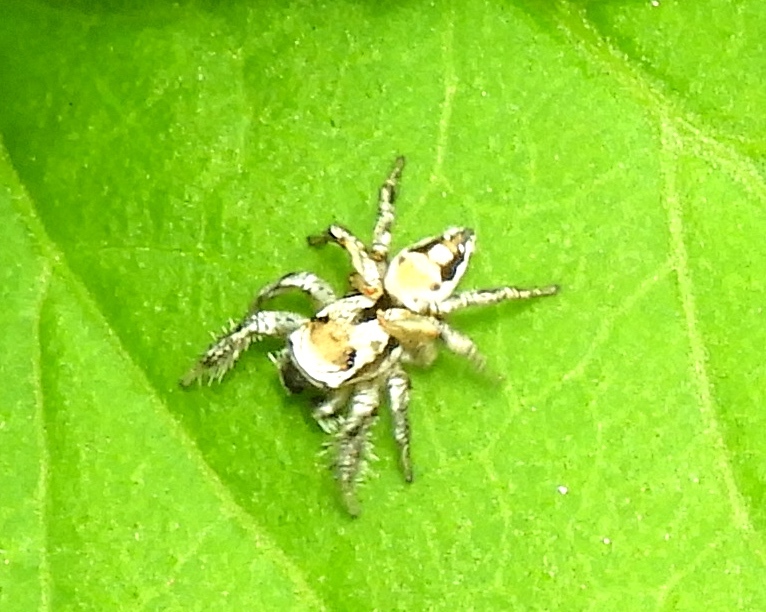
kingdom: Animalia
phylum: Arthropoda
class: Arachnida
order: Araneae
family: Salticidae
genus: Habronattus
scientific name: Habronattus aztecanus
